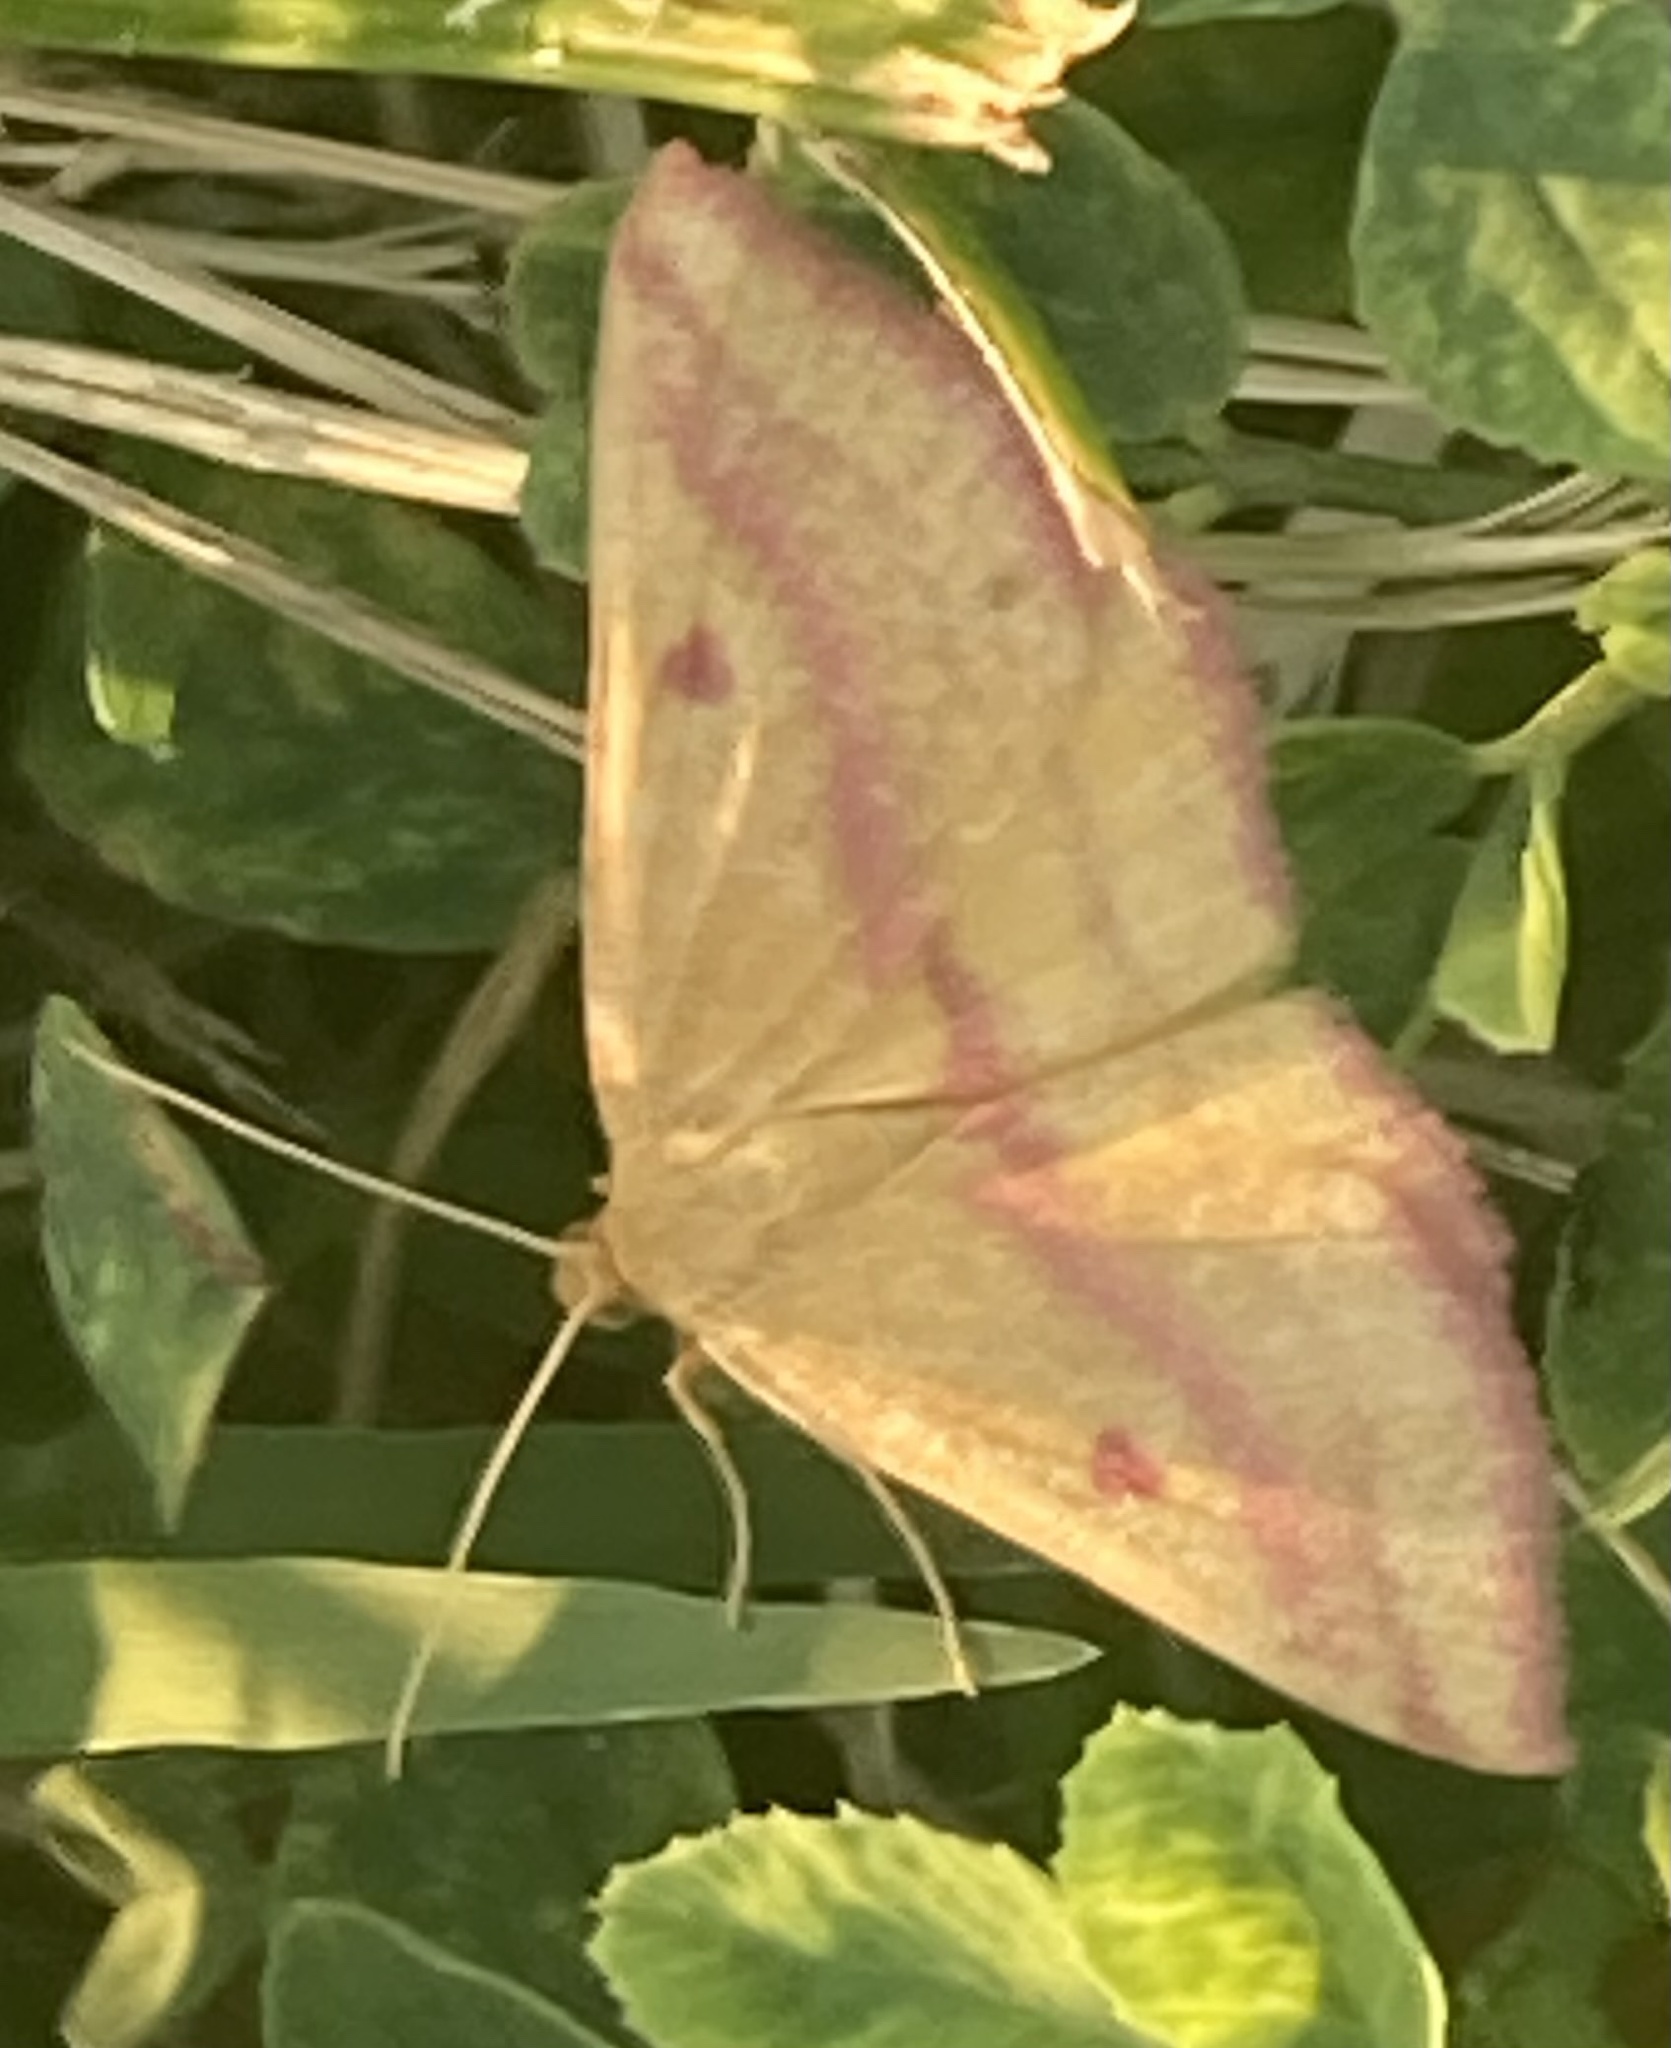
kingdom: Animalia
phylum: Arthropoda
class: Insecta
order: Lepidoptera
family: Geometridae
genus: Haematopis
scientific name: Haematopis grataria
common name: Chickweed geometer
